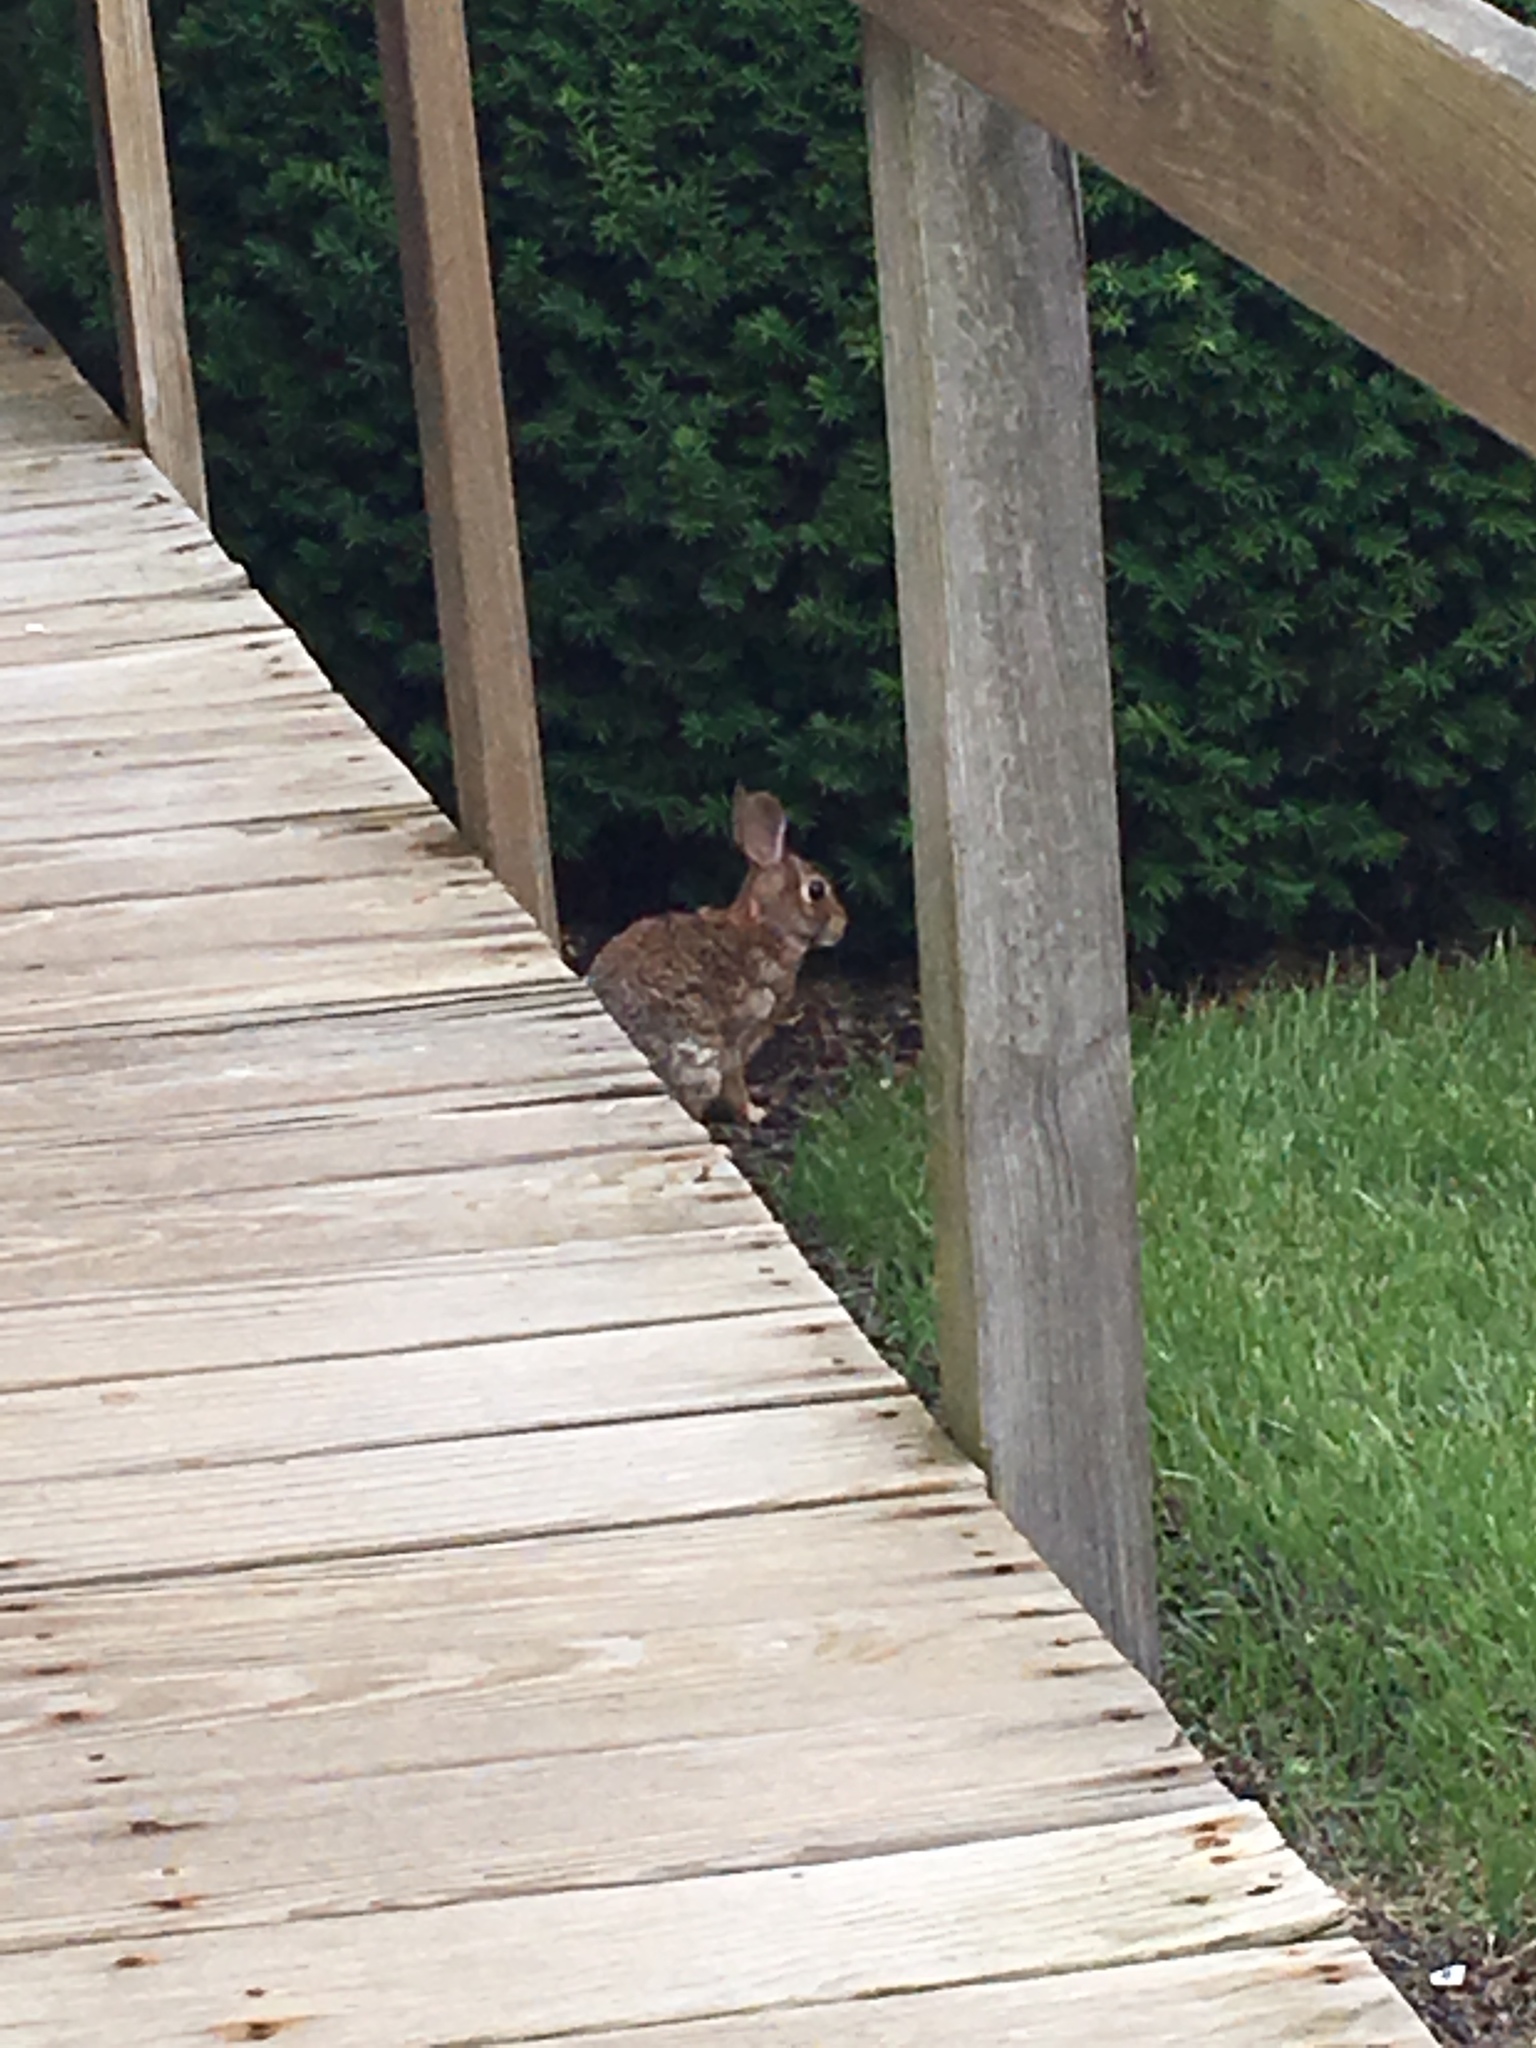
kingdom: Animalia
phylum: Chordata
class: Mammalia
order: Lagomorpha
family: Leporidae
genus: Sylvilagus
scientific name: Sylvilagus floridanus
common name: Eastern cottontail
